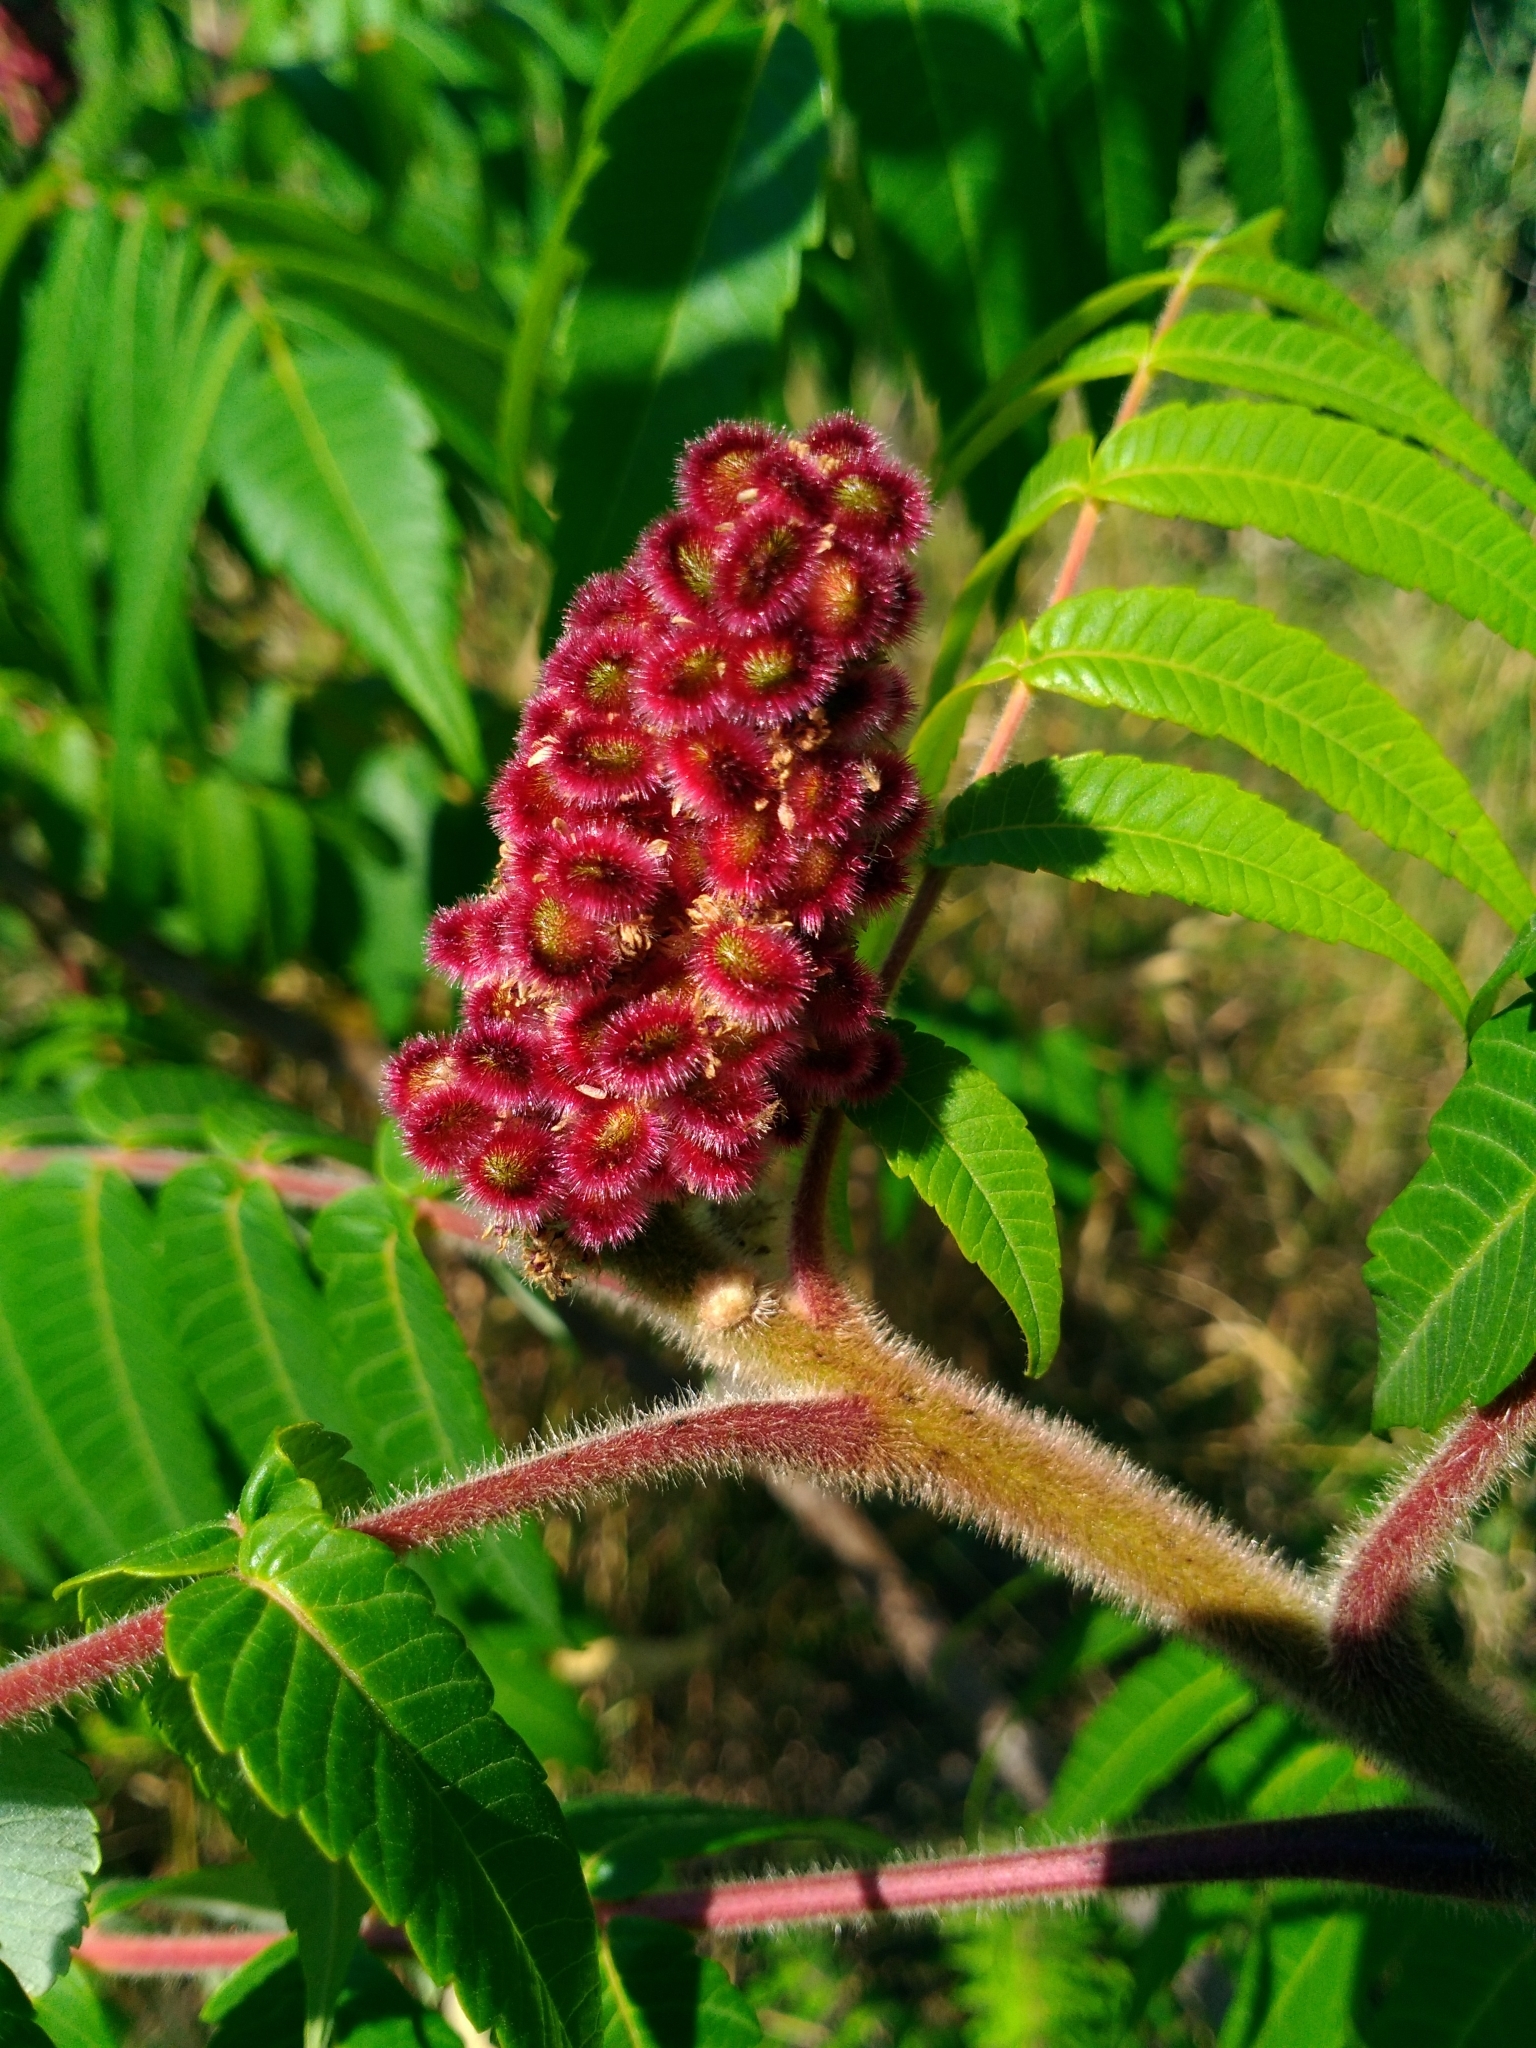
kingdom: Plantae
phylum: Tracheophyta
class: Magnoliopsida
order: Sapindales
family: Anacardiaceae
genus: Rhus
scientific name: Rhus typhina
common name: Staghorn sumac
